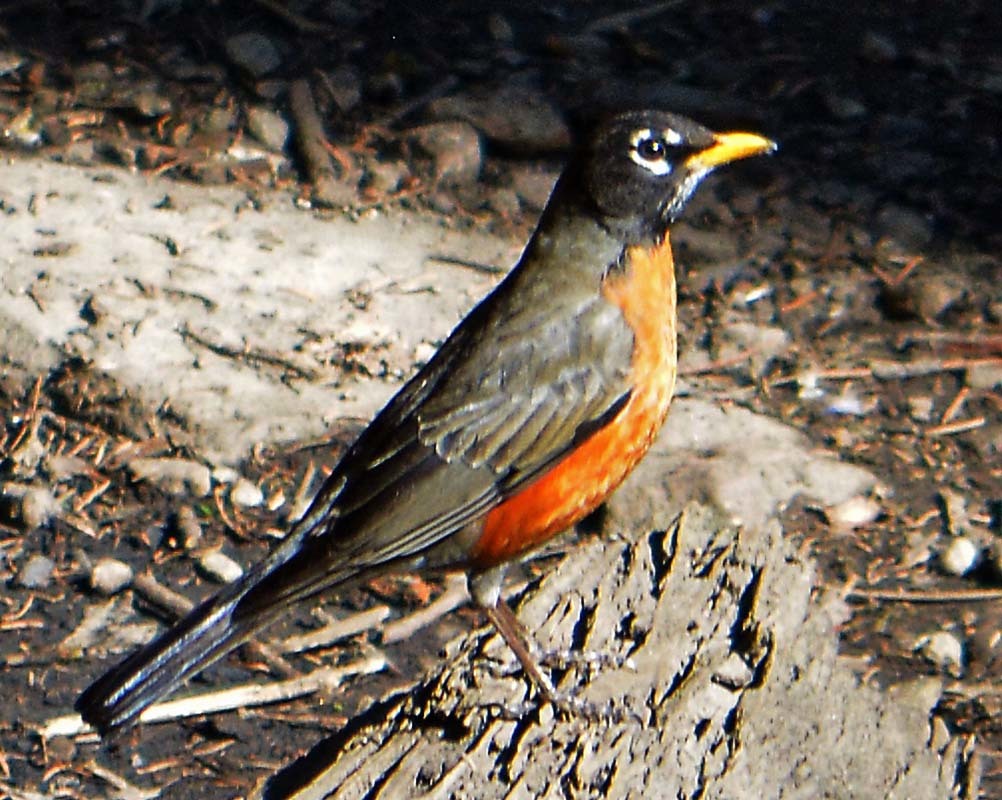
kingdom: Animalia
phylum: Chordata
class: Aves
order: Passeriformes
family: Turdidae
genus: Turdus
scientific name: Turdus migratorius
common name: American robin
